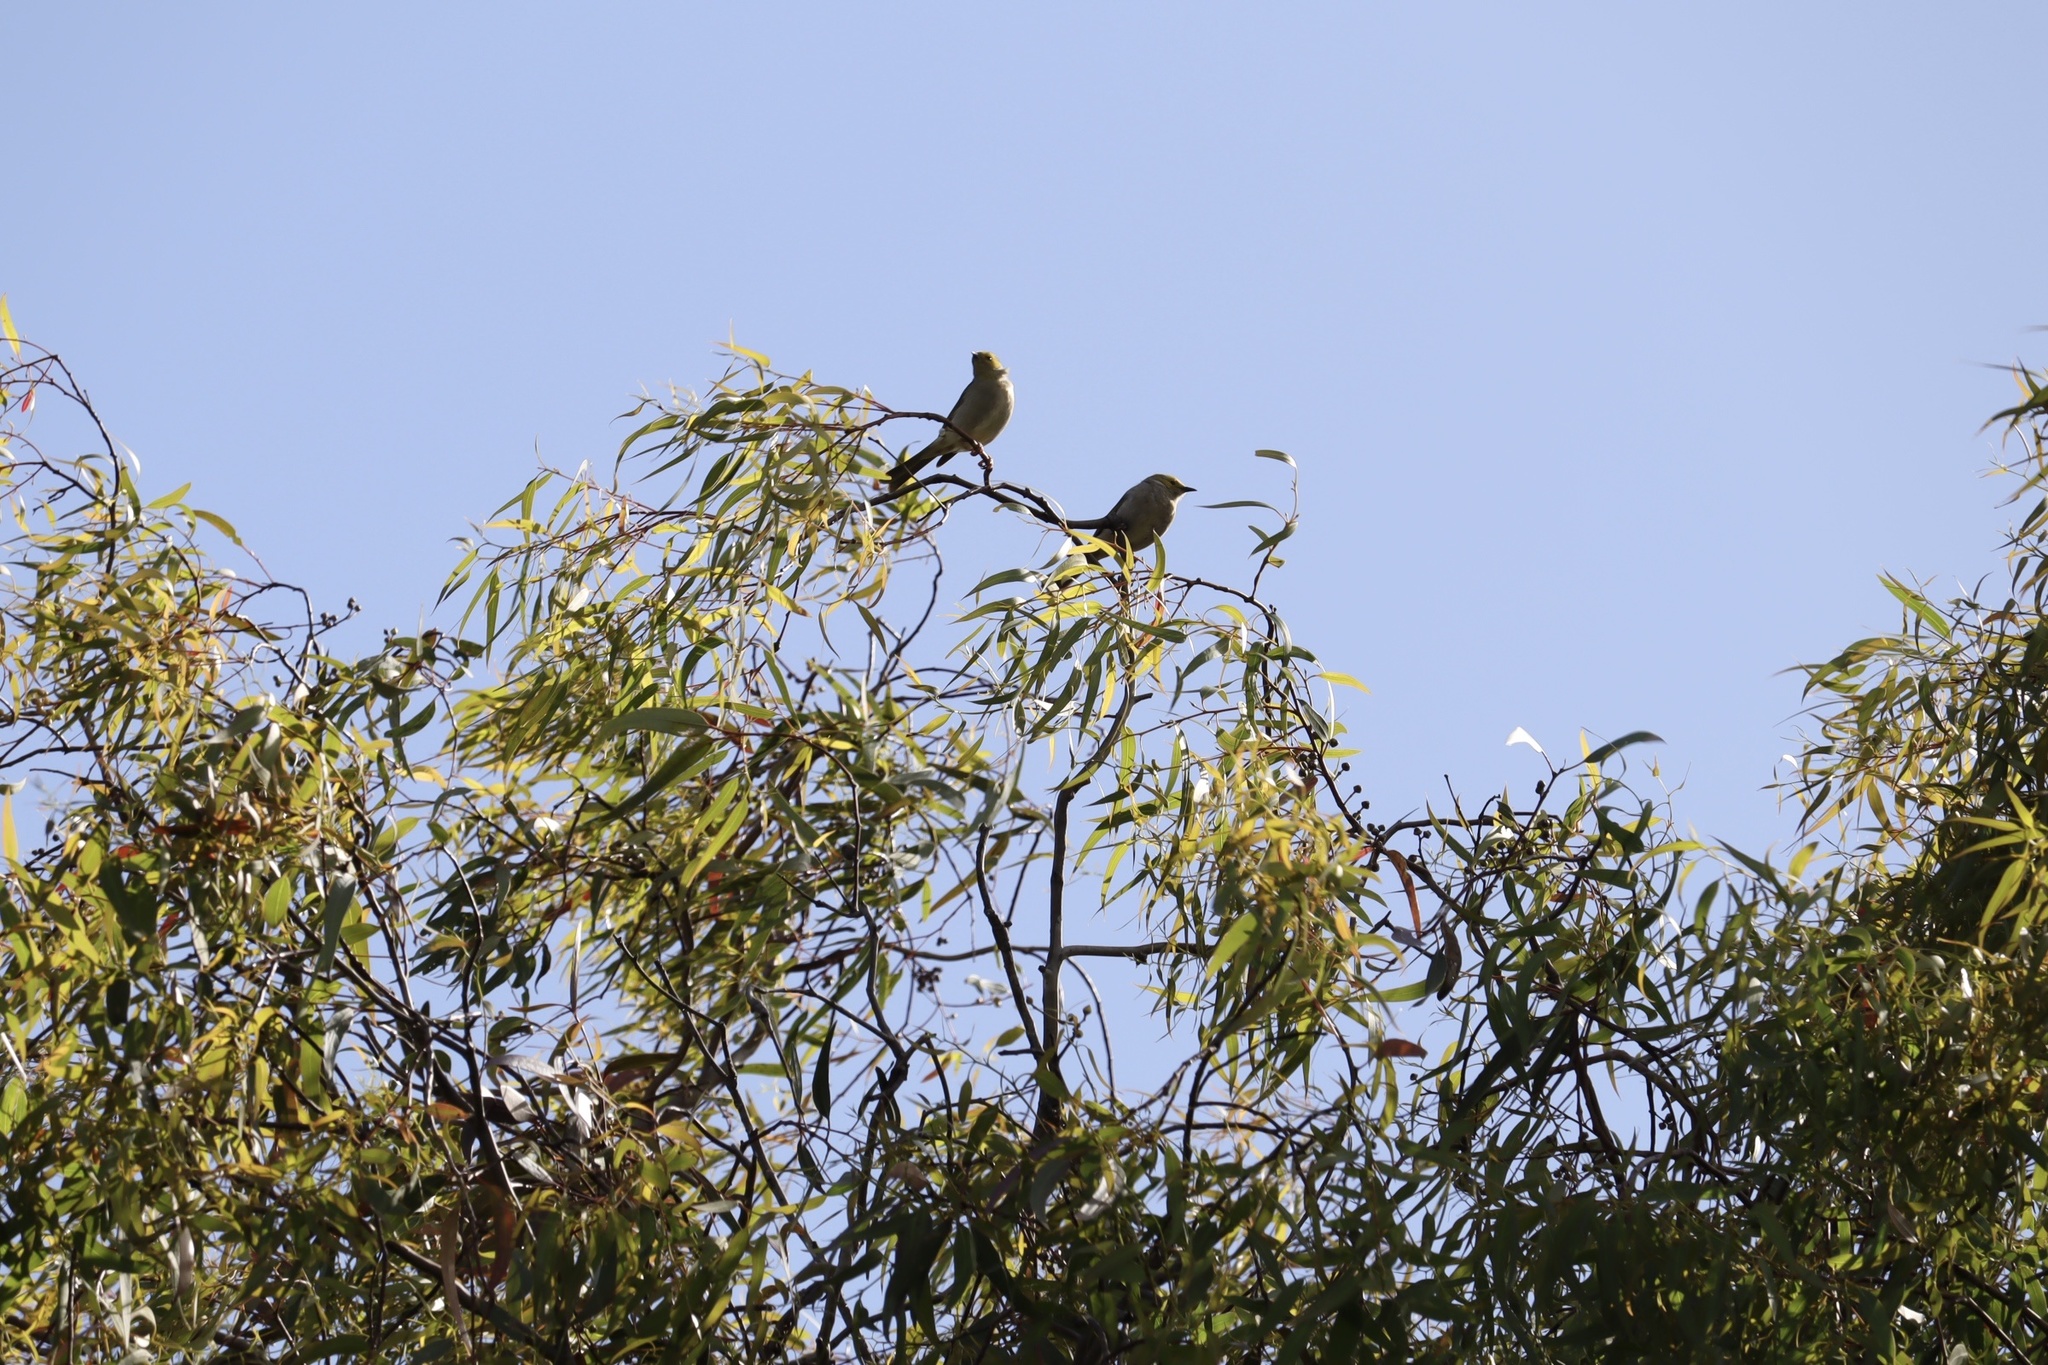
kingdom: Animalia
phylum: Chordata
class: Aves
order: Passeriformes
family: Meliphagidae
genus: Ptilotula
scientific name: Ptilotula penicillata
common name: White-plumed honeyeater
